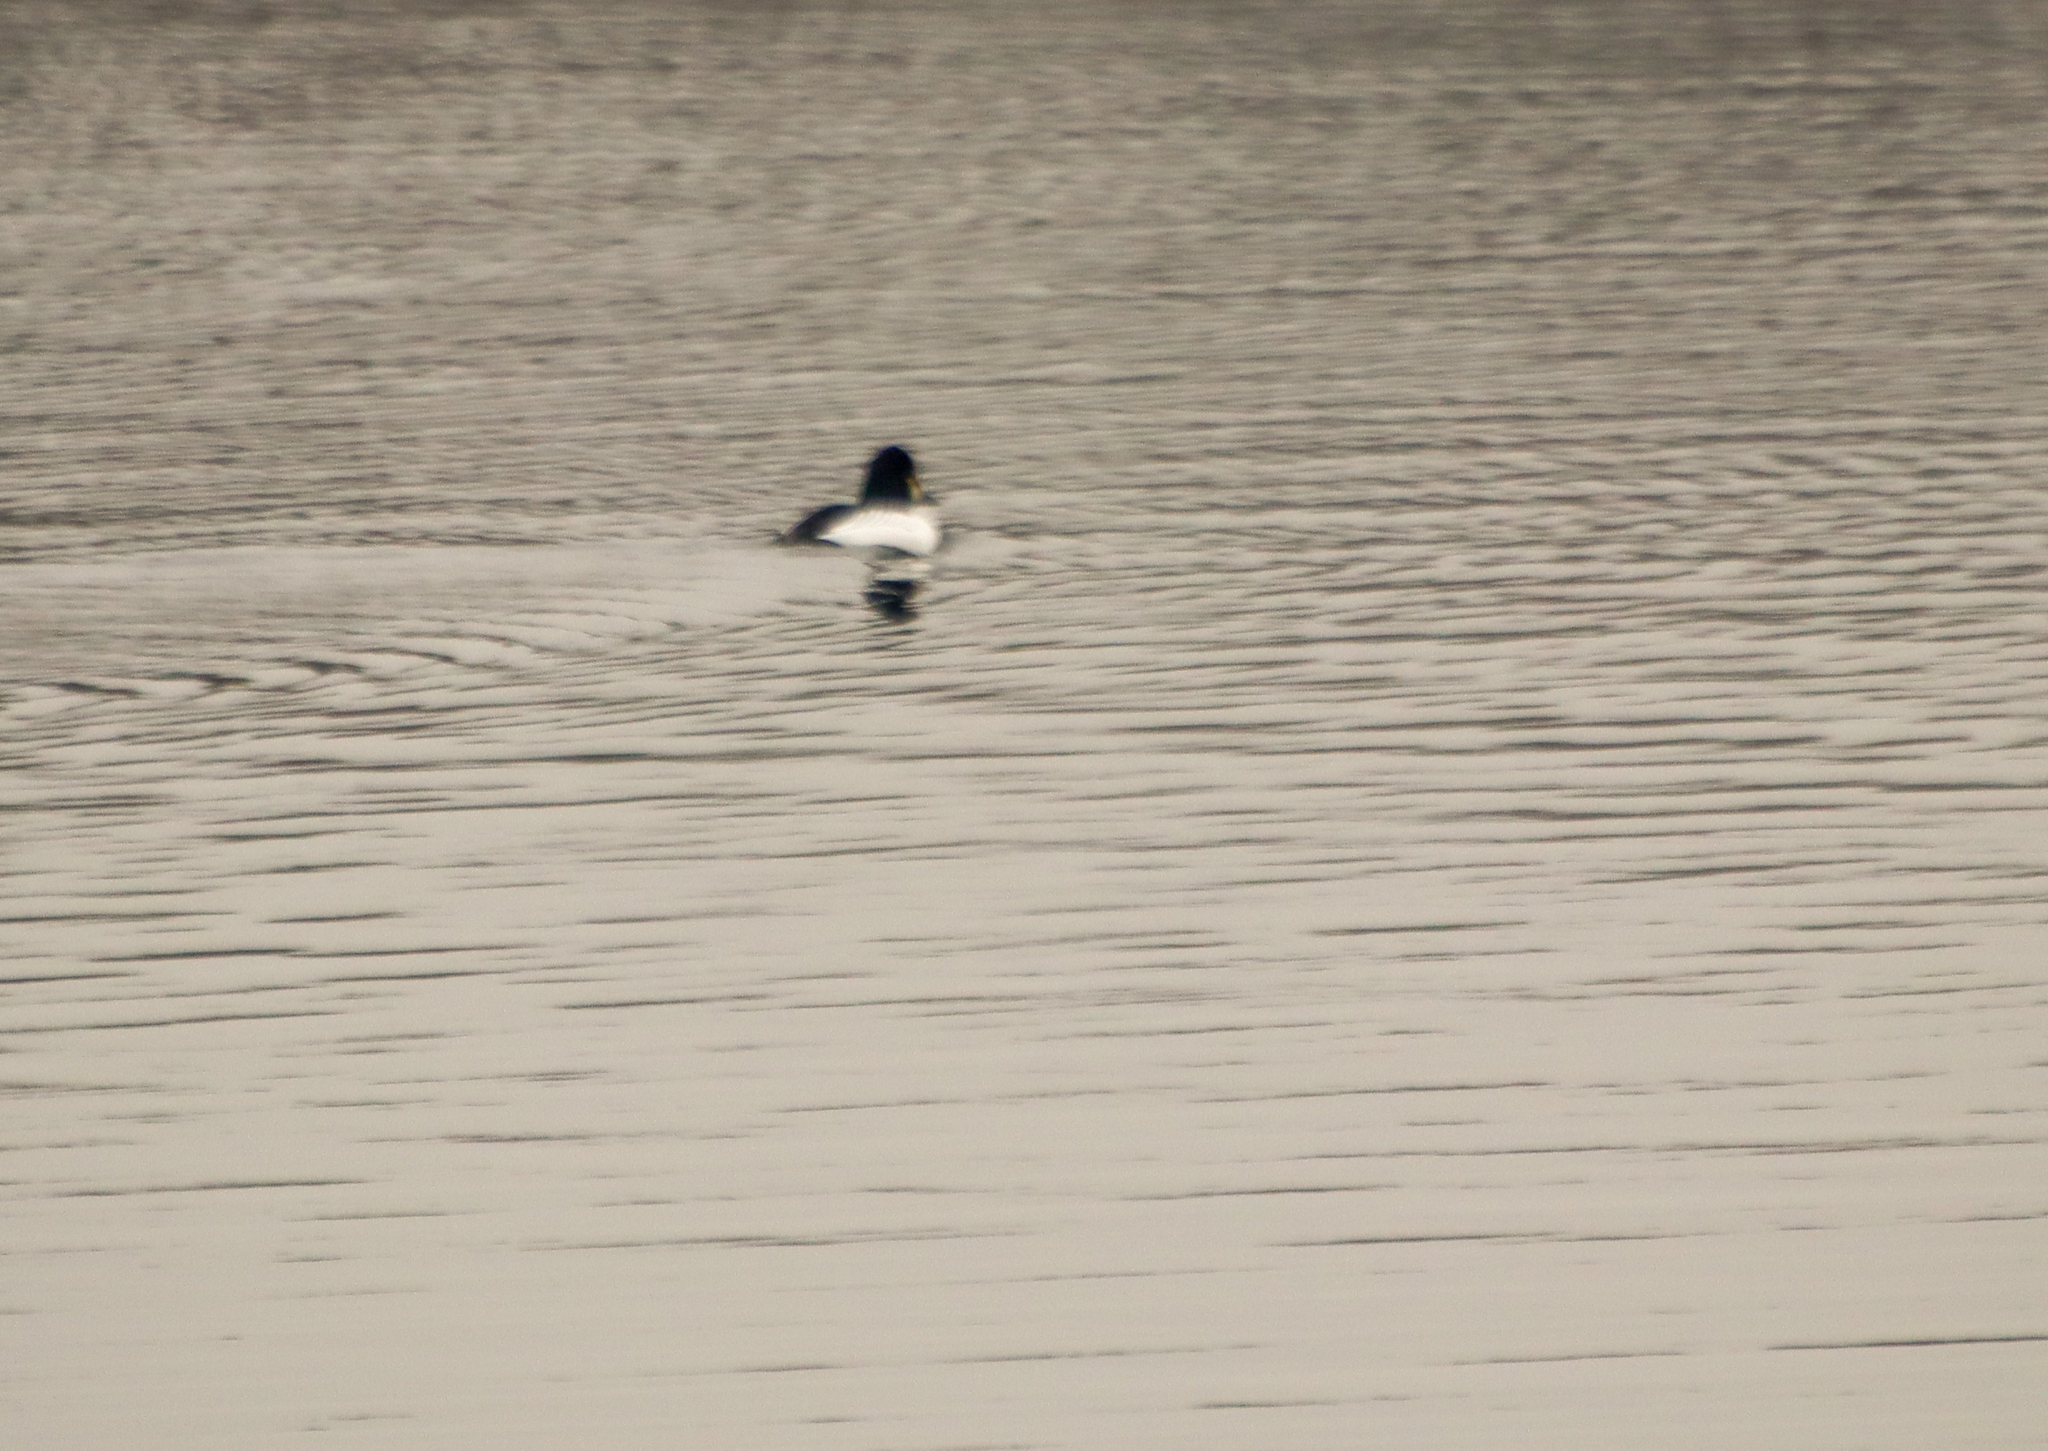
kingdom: Animalia
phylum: Chordata
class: Aves
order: Anseriformes
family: Anatidae
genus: Bucephala
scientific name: Bucephala clangula
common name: Common goldeneye
